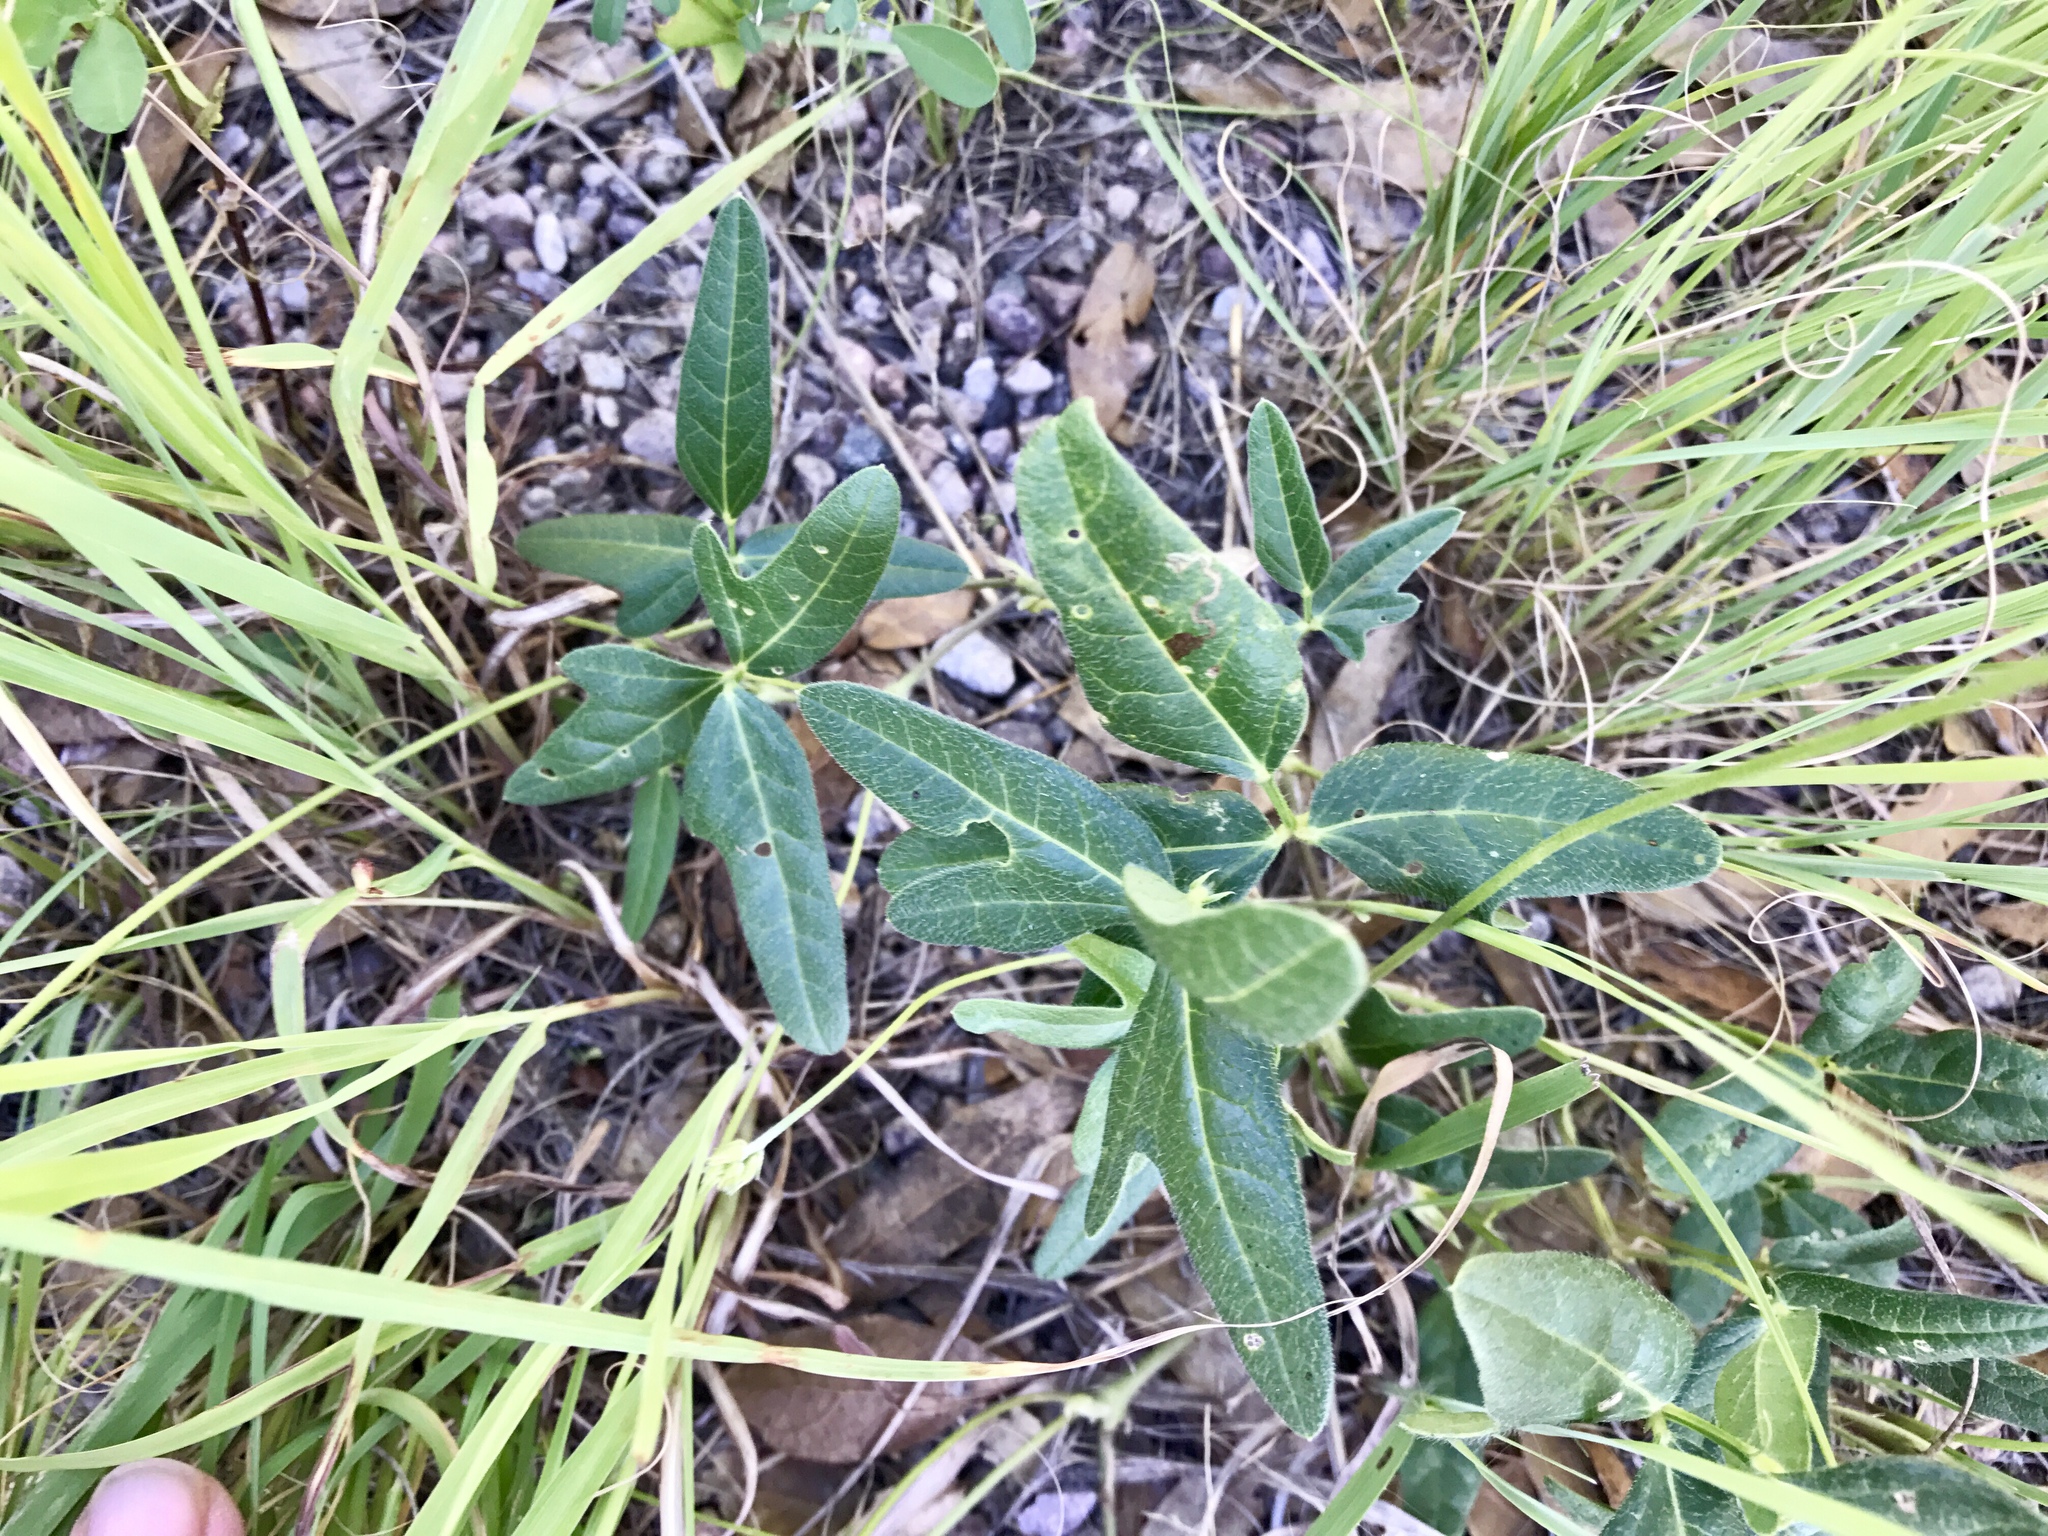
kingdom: Plantae
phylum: Tracheophyta
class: Magnoliopsida
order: Fabales
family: Fabaceae
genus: Macroptilium
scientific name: Macroptilium gibbosifolium
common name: Variableleaf bushbean
